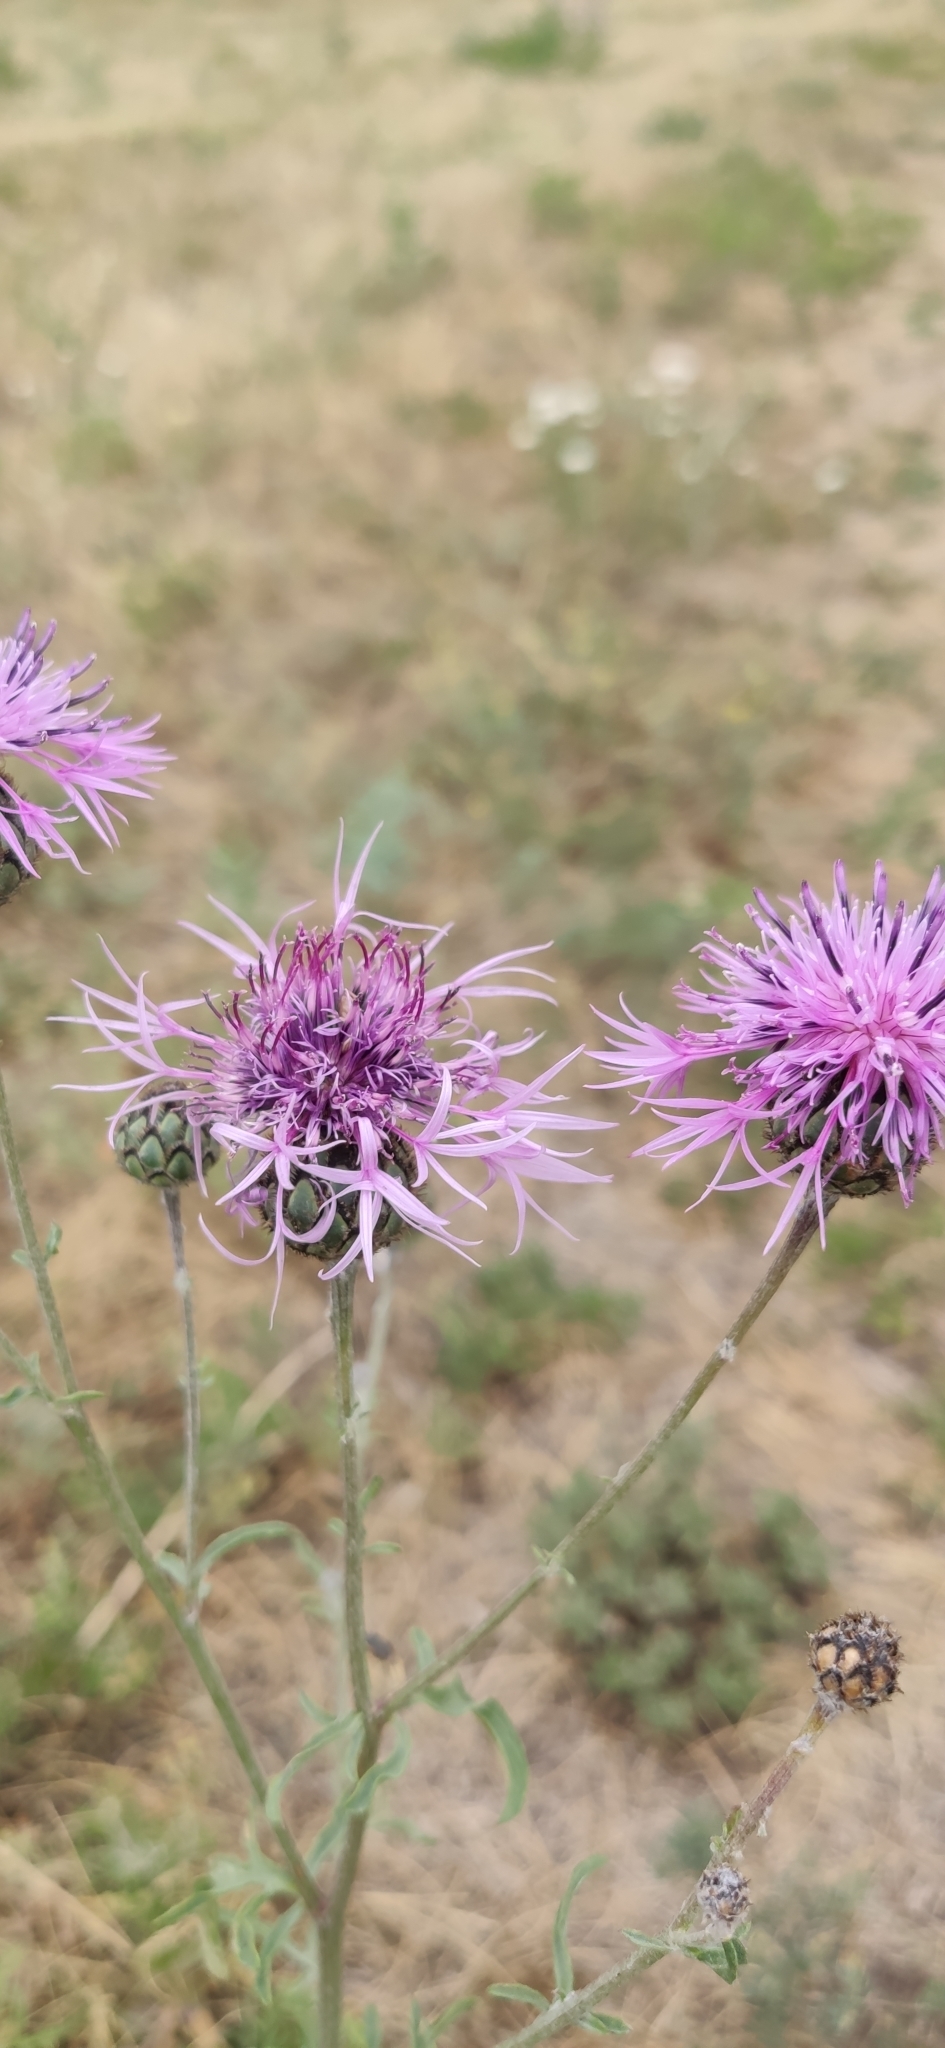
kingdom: Plantae
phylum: Tracheophyta
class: Magnoliopsida
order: Asterales
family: Asteraceae
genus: Centaurea
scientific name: Centaurea scabiosa
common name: Greater knapweed
